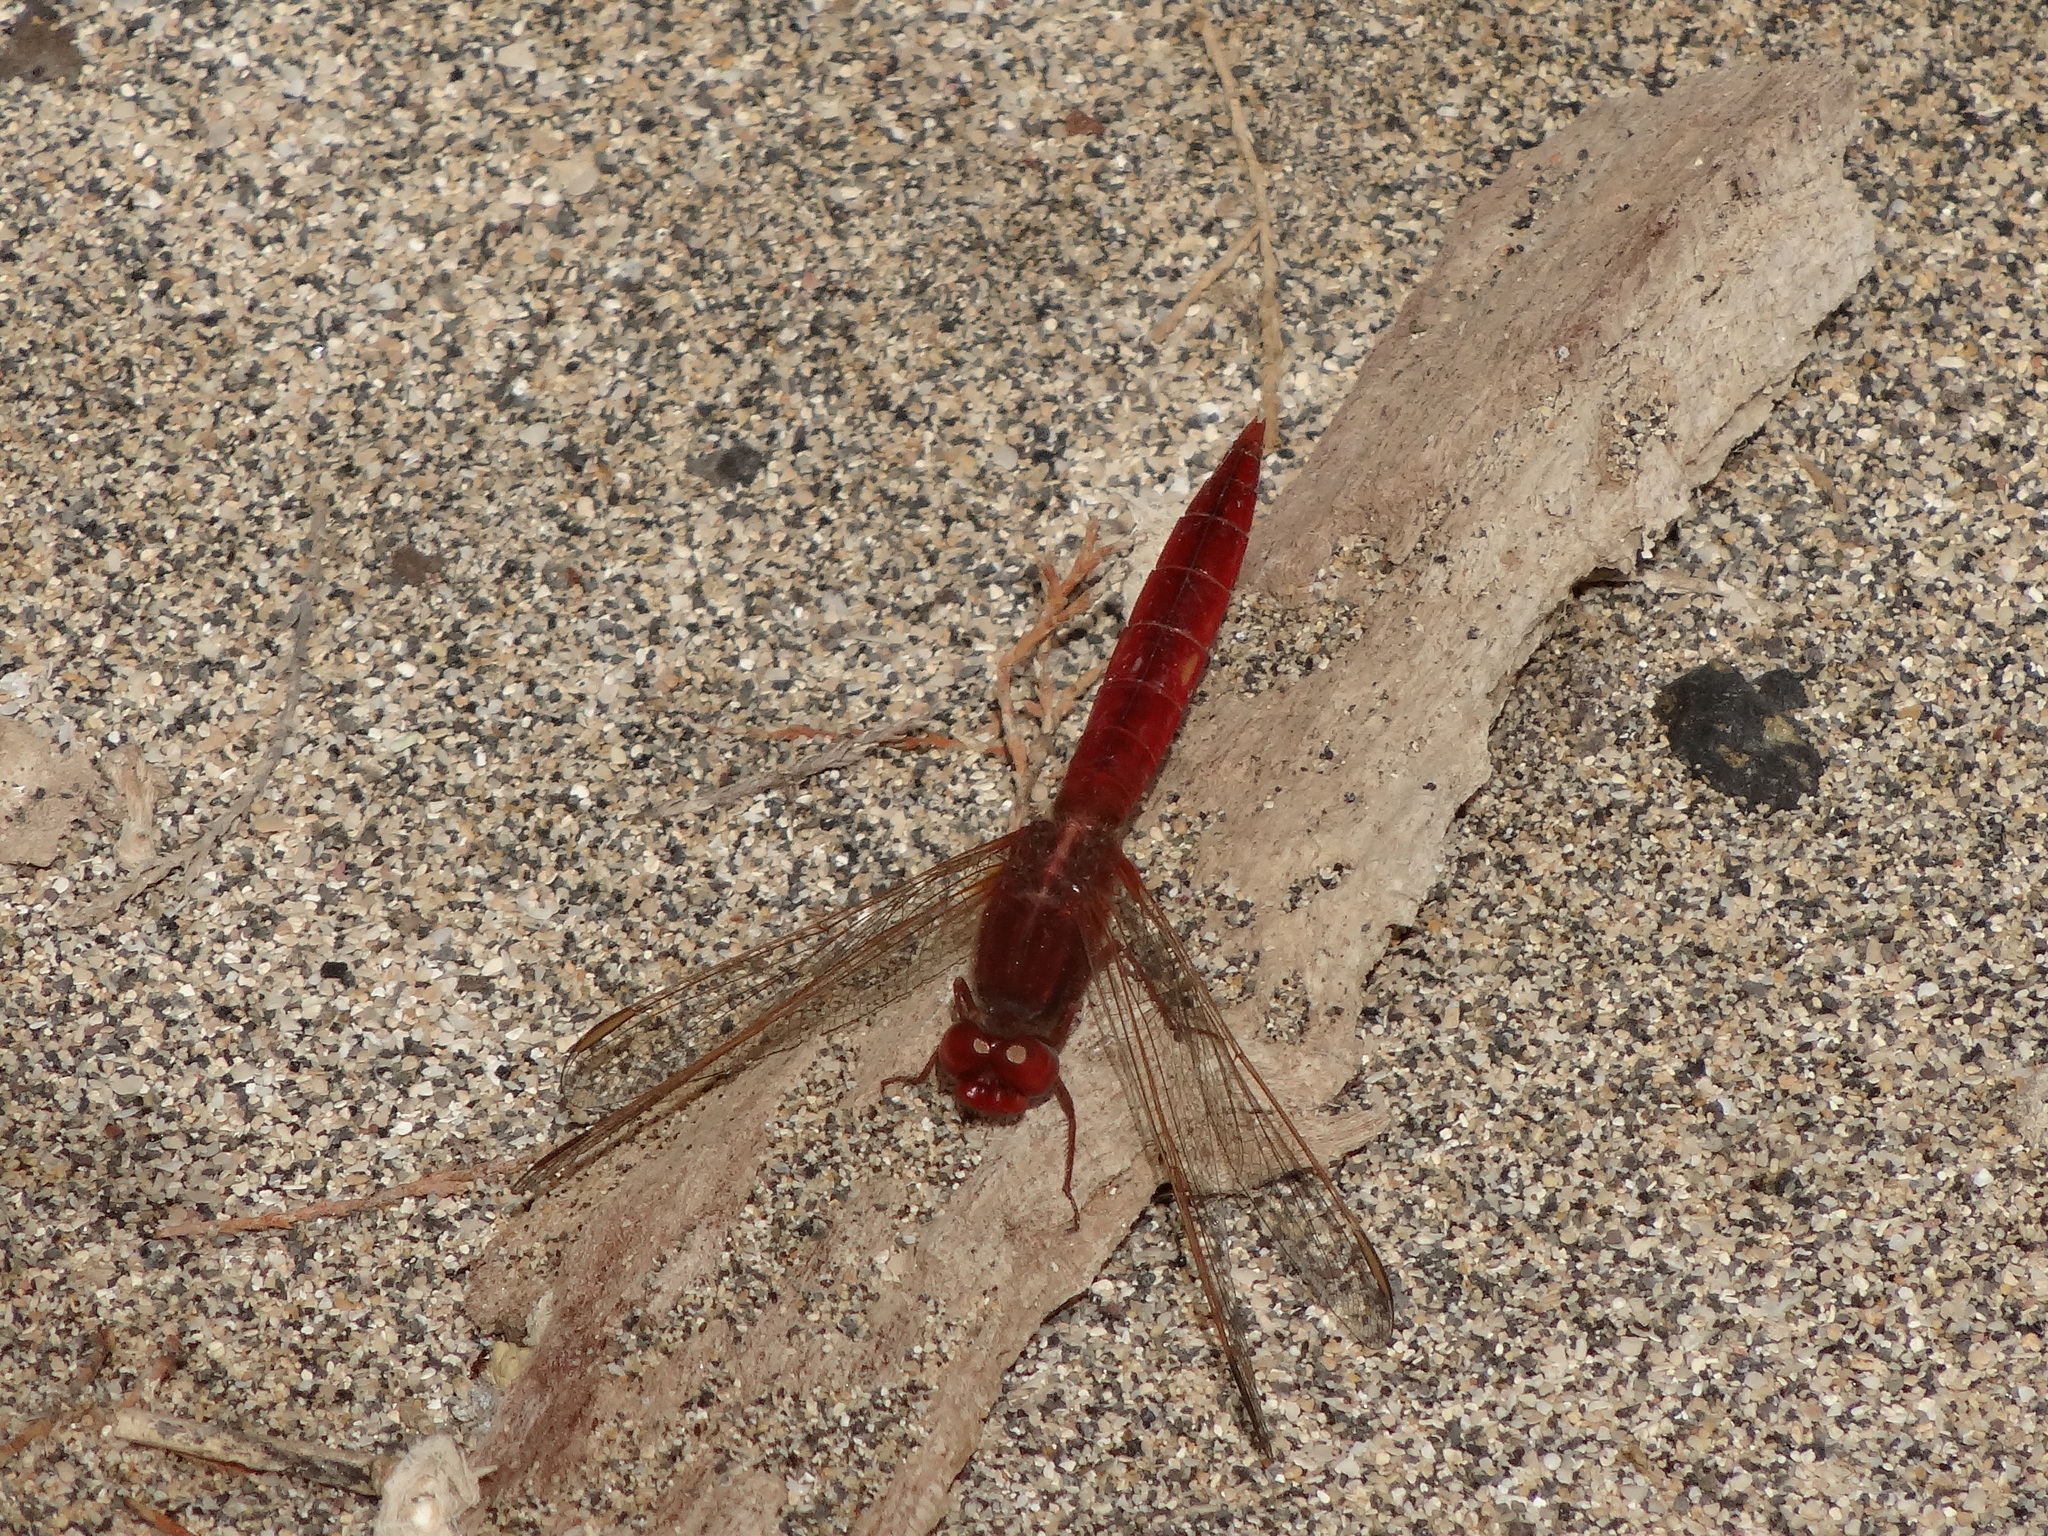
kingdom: Animalia
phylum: Arthropoda
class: Insecta
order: Odonata
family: Libellulidae
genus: Crocothemis
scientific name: Crocothemis erythraea
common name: Scarlet dragonfly
